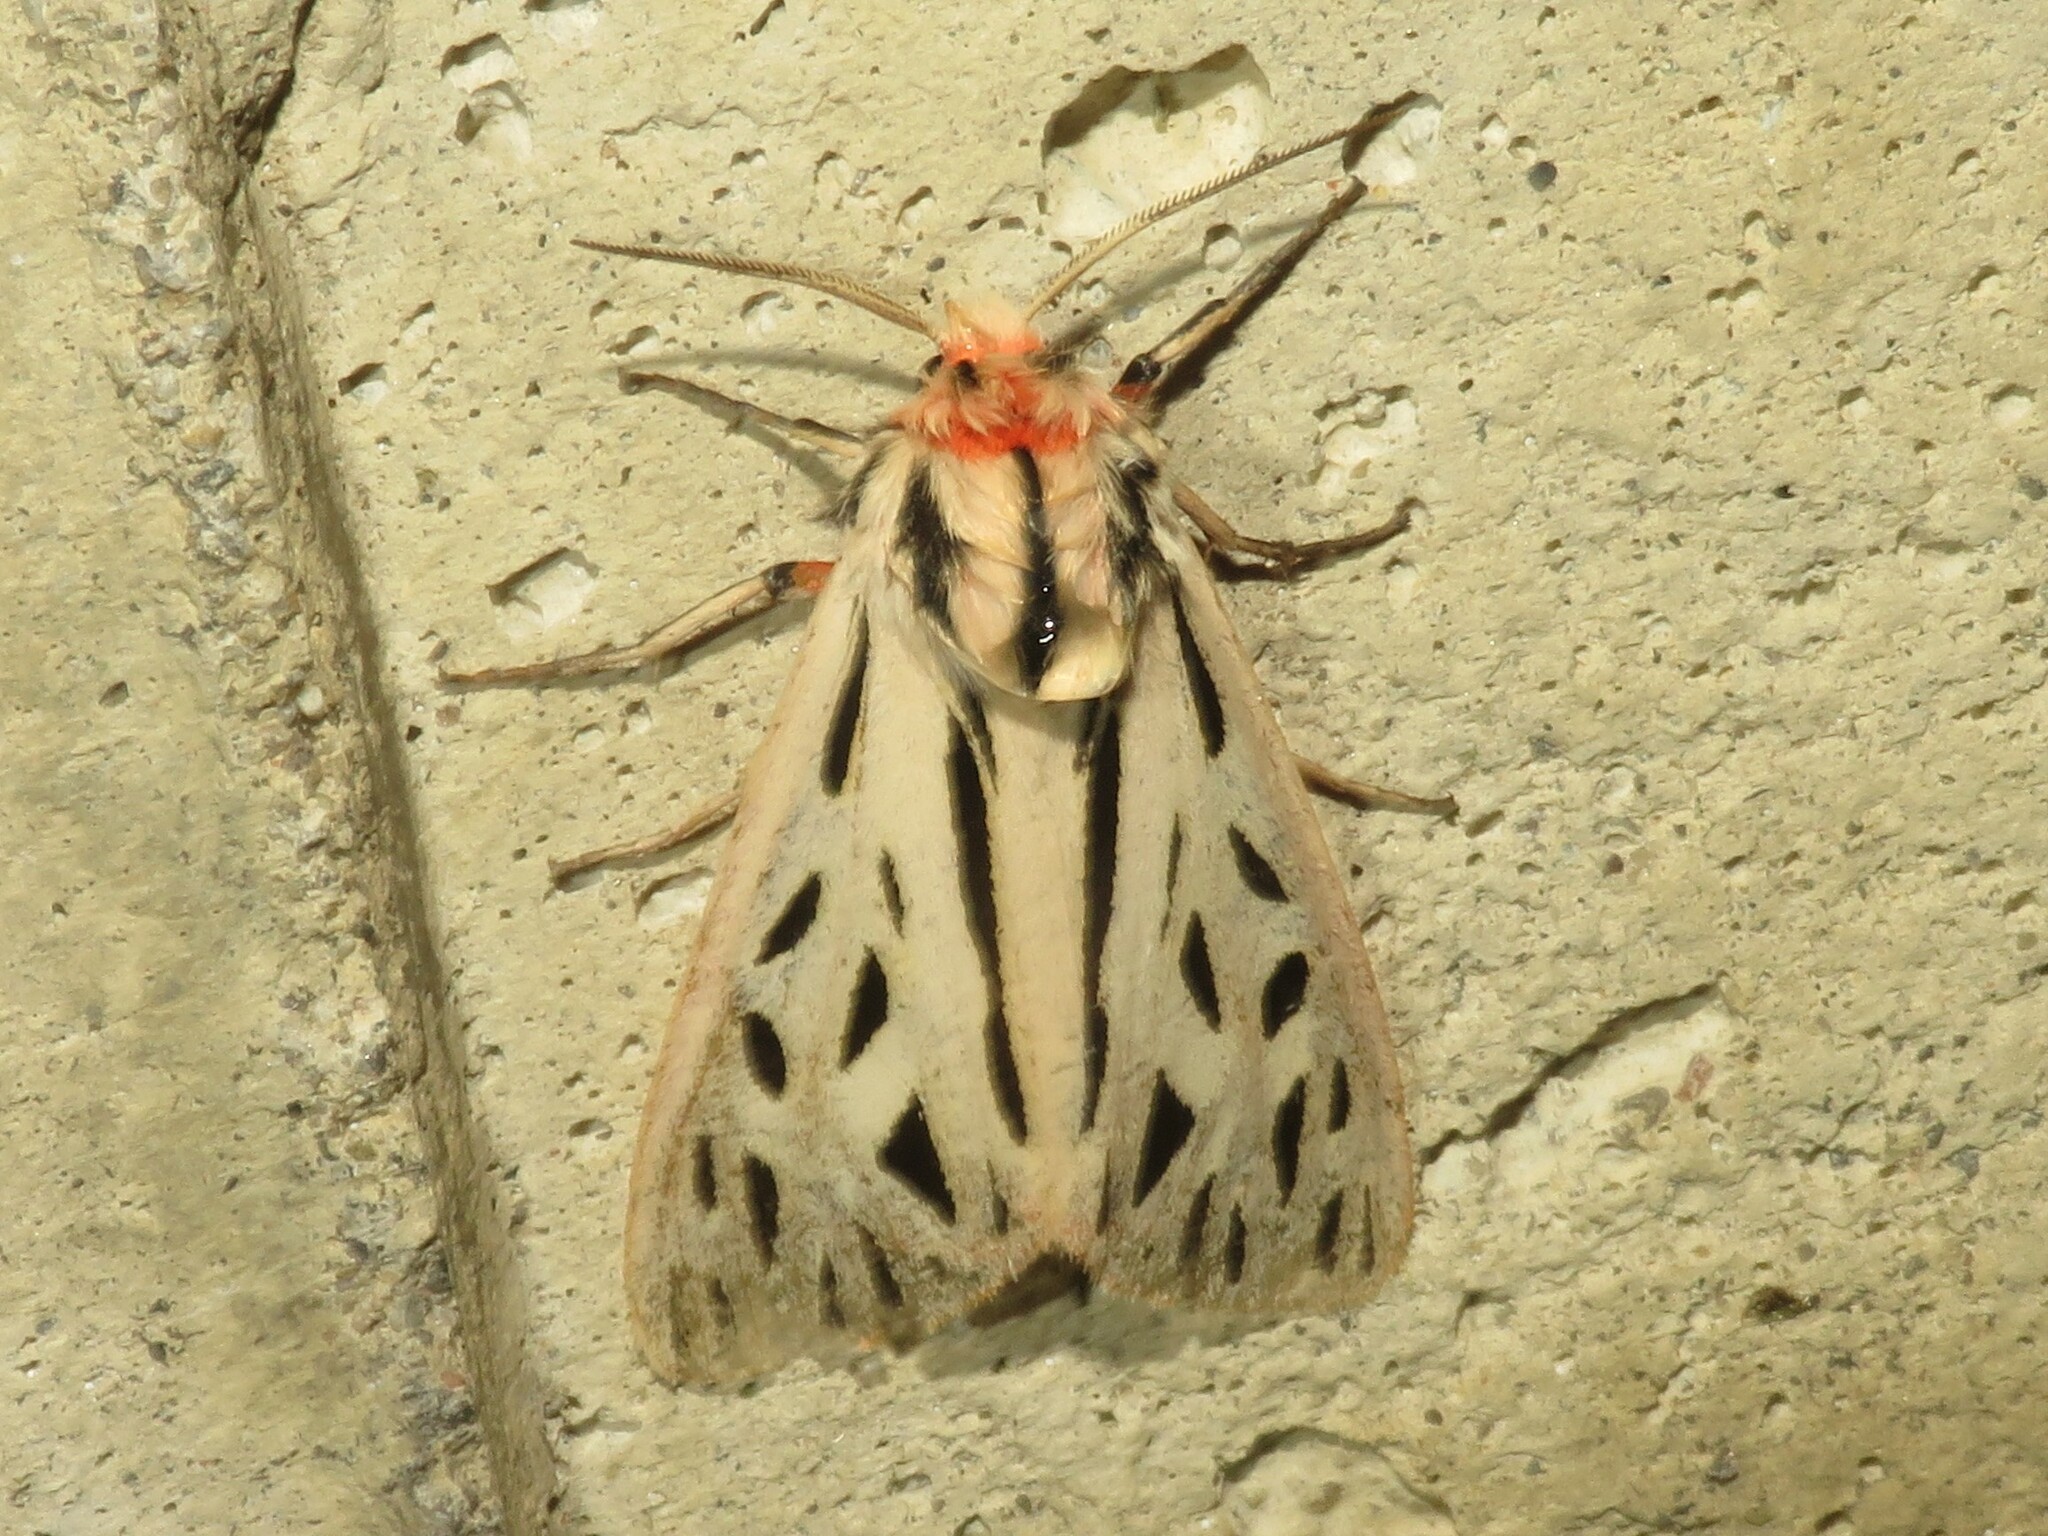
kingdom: Animalia
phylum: Arthropoda
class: Insecta
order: Lepidoptera
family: Erebidae
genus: Apantesis
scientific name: Apantesis arge
